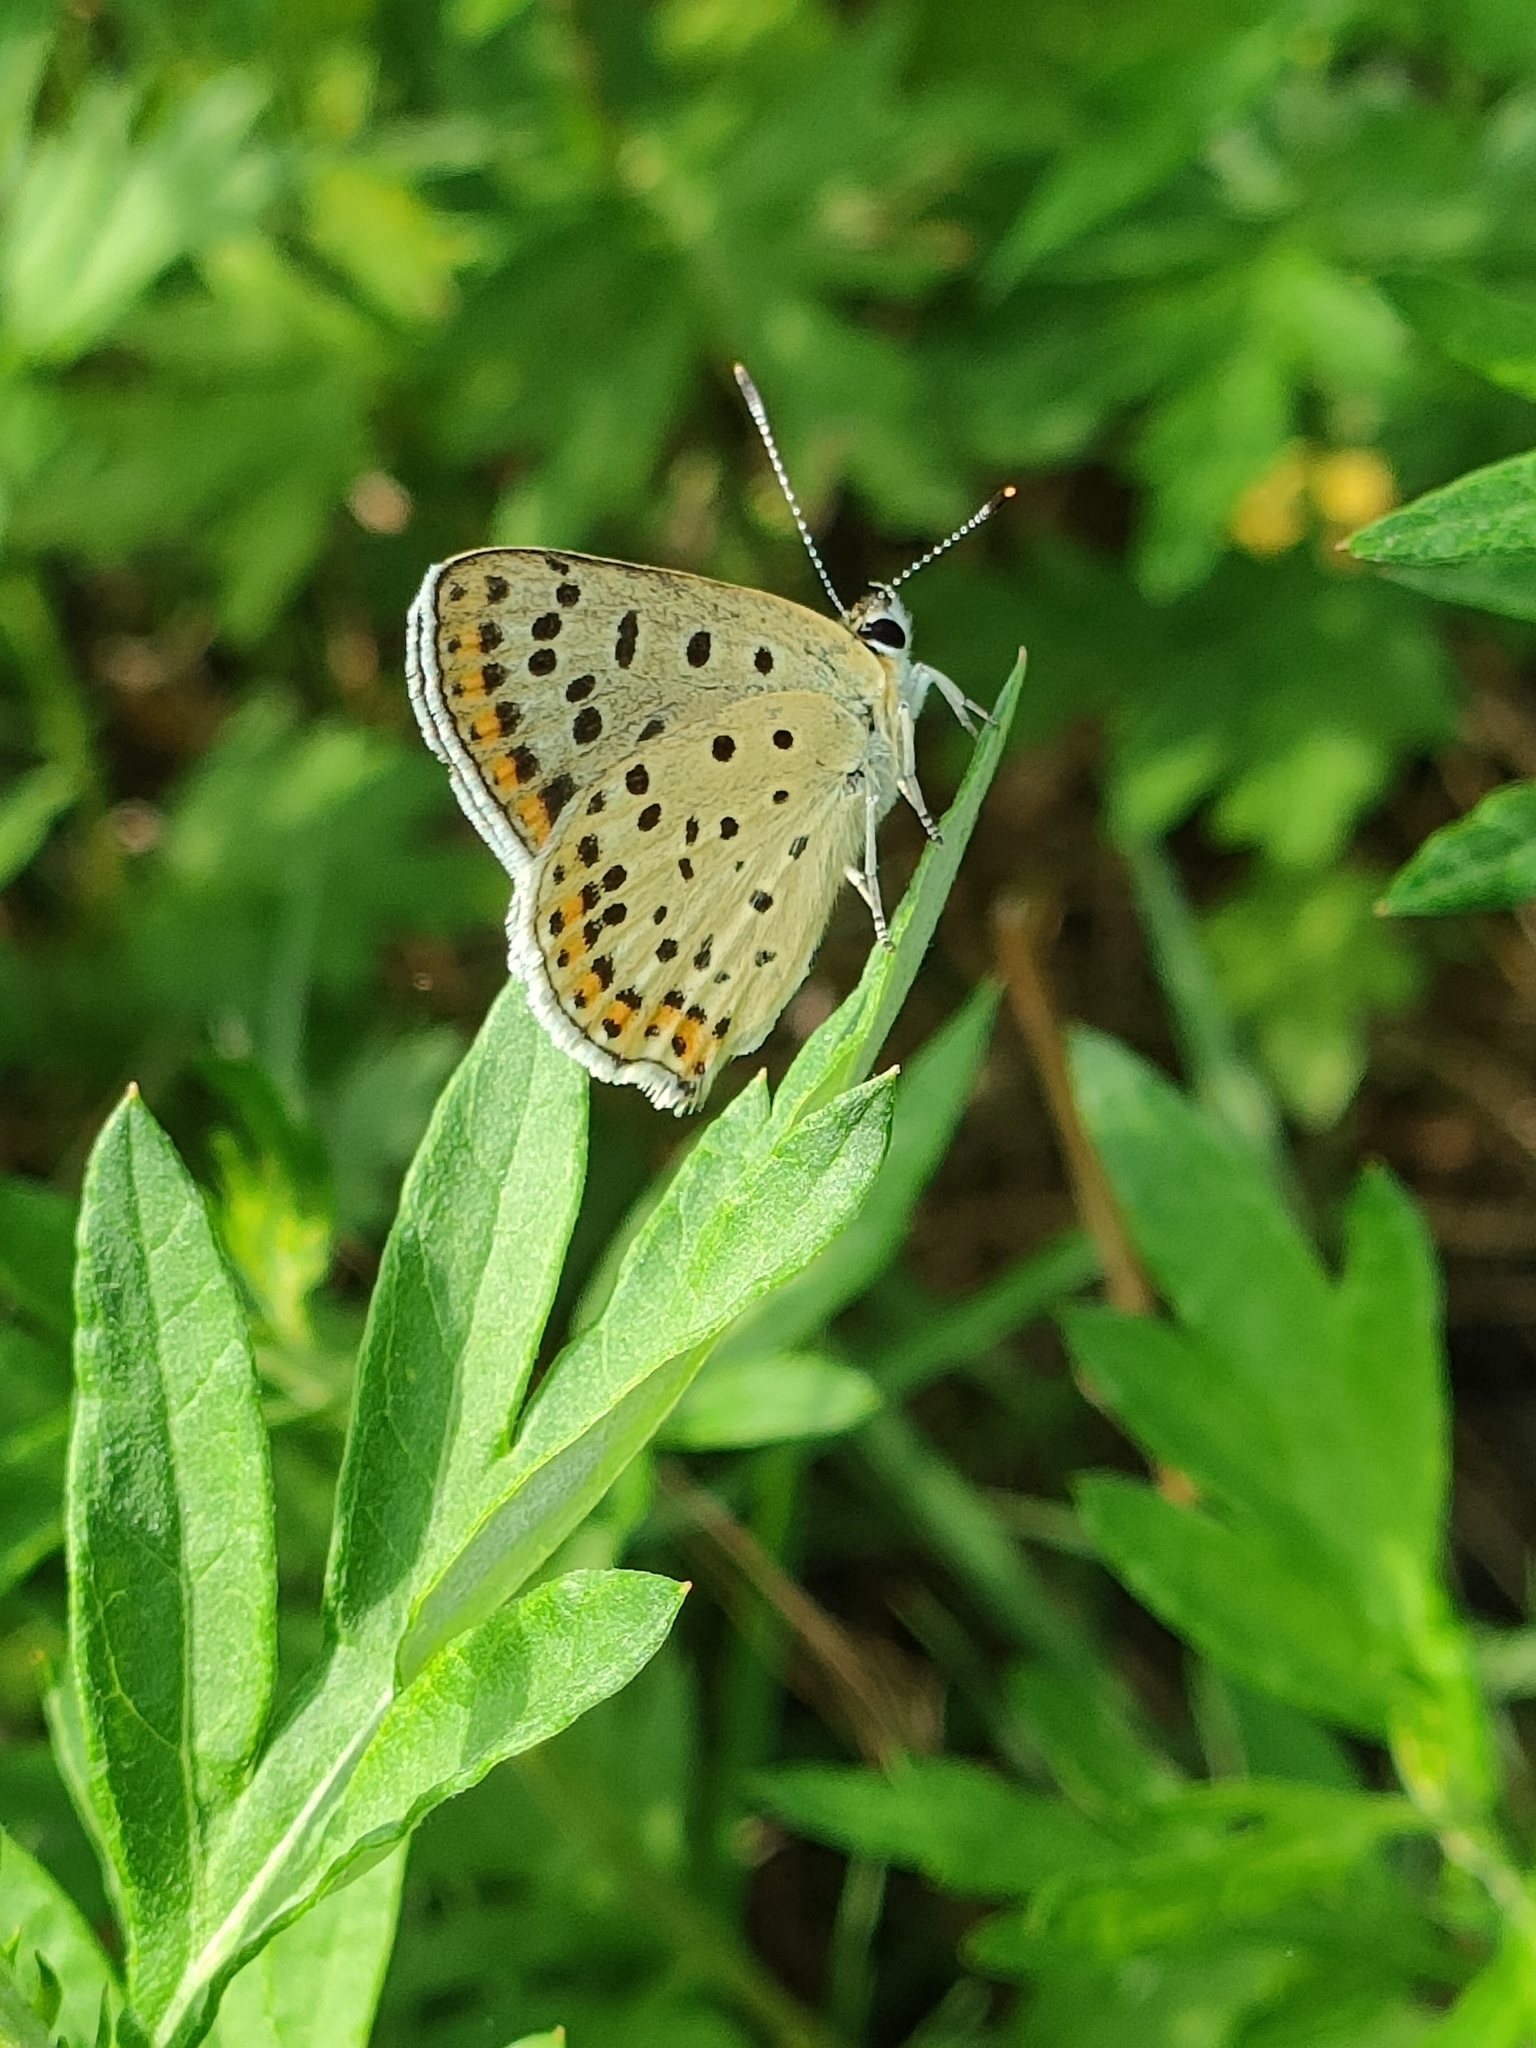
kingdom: Animalia
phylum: Arthropoda
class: Insecta
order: Lepidoptera
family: Lycaenidae
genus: Loweia
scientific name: Loweia tityrus
